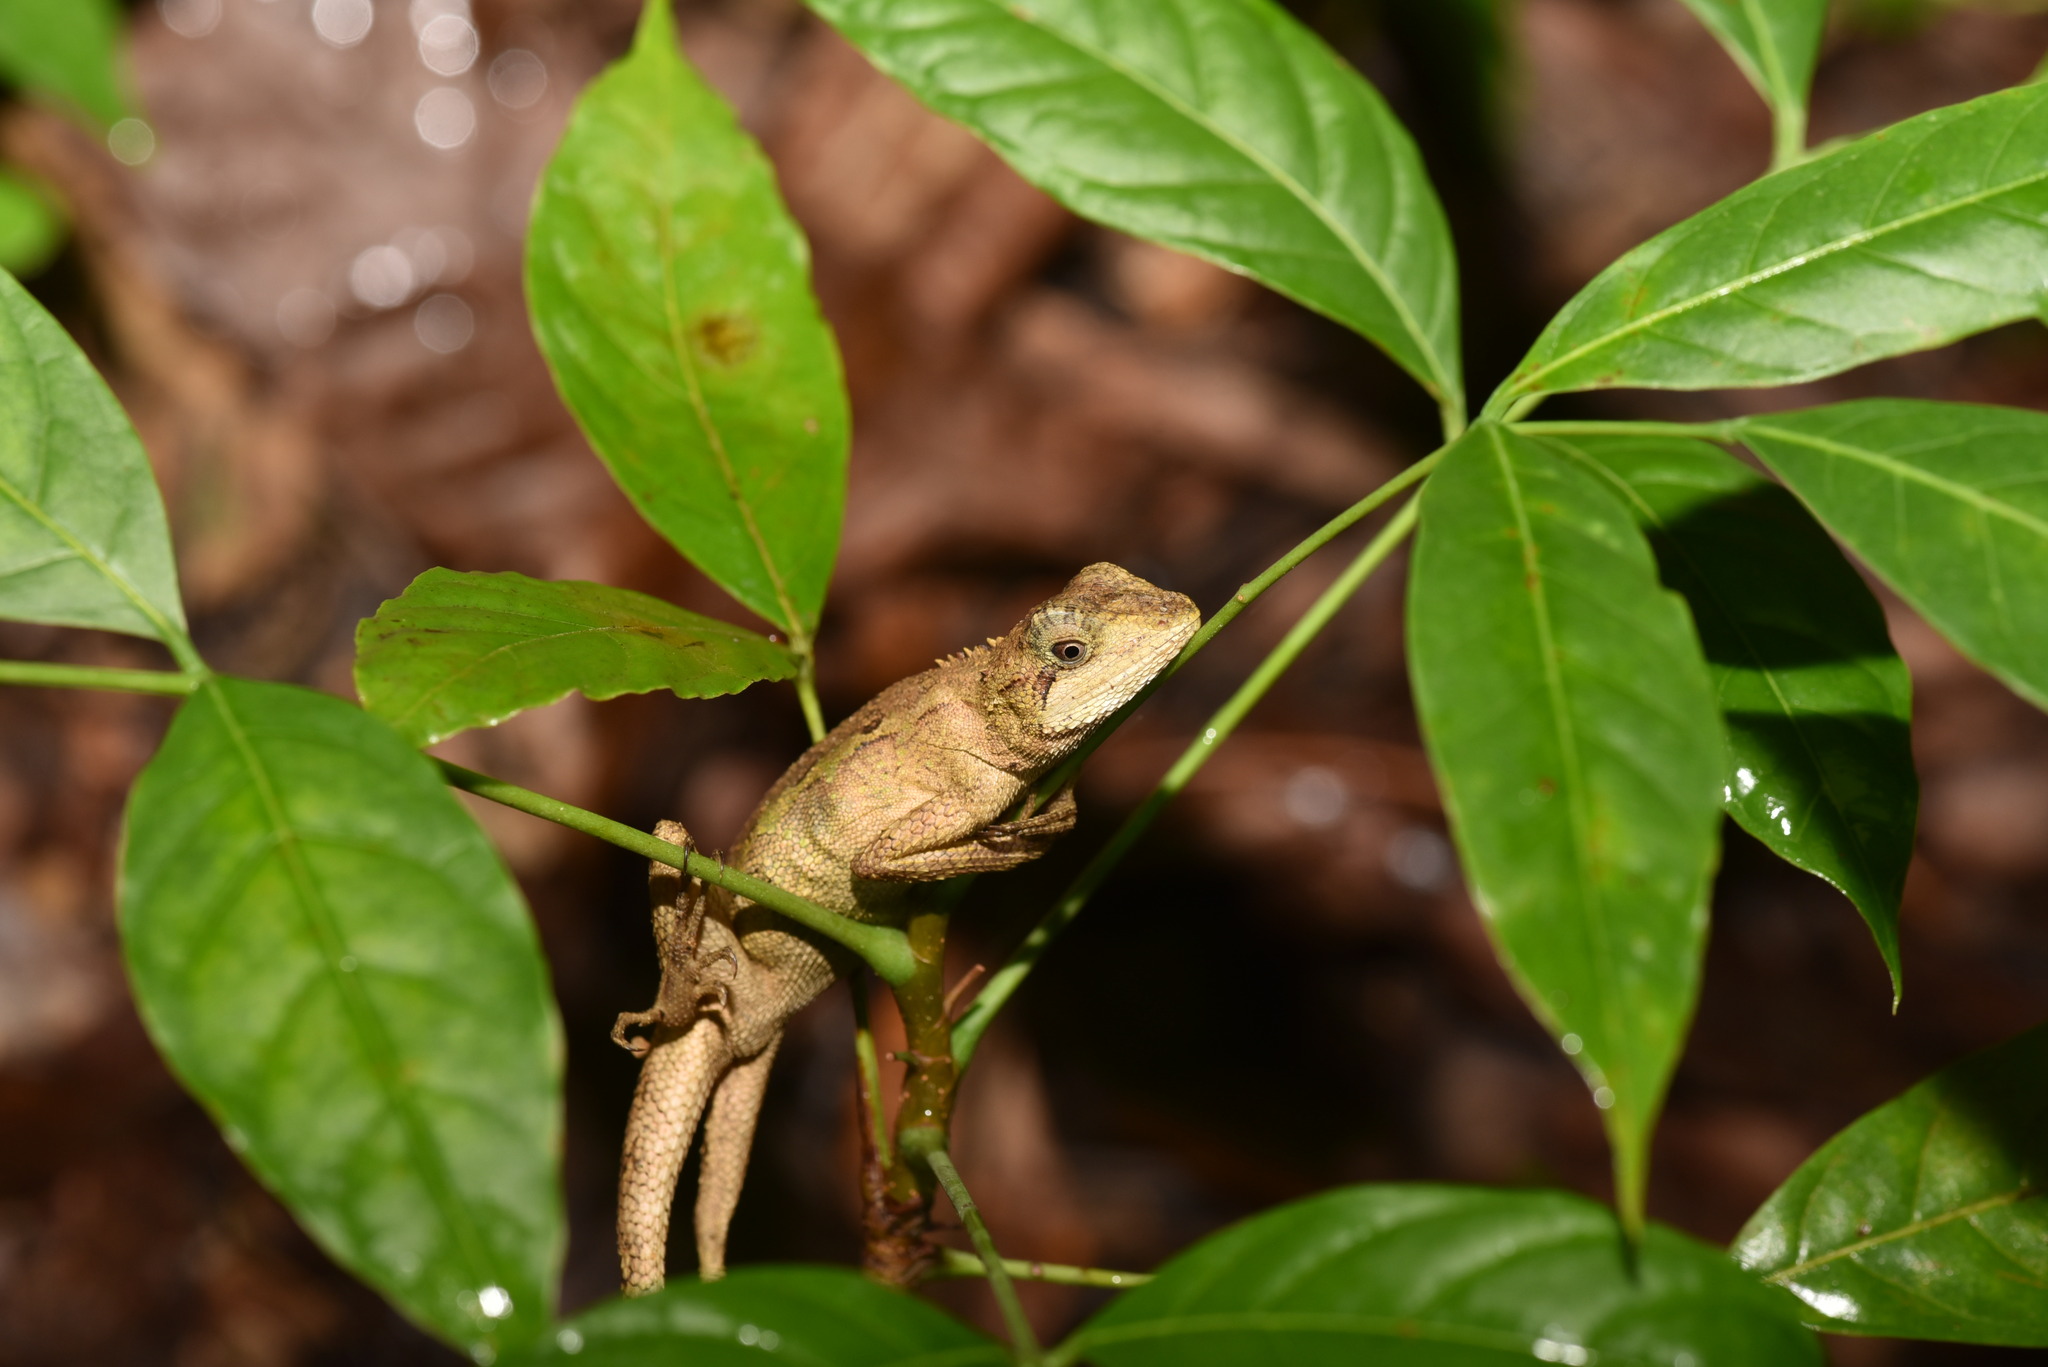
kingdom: Animalia
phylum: Chordata
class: Squamata
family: Agamidae
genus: Diploderma
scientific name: Diploderma swinhonis
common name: Taiwan japalure
